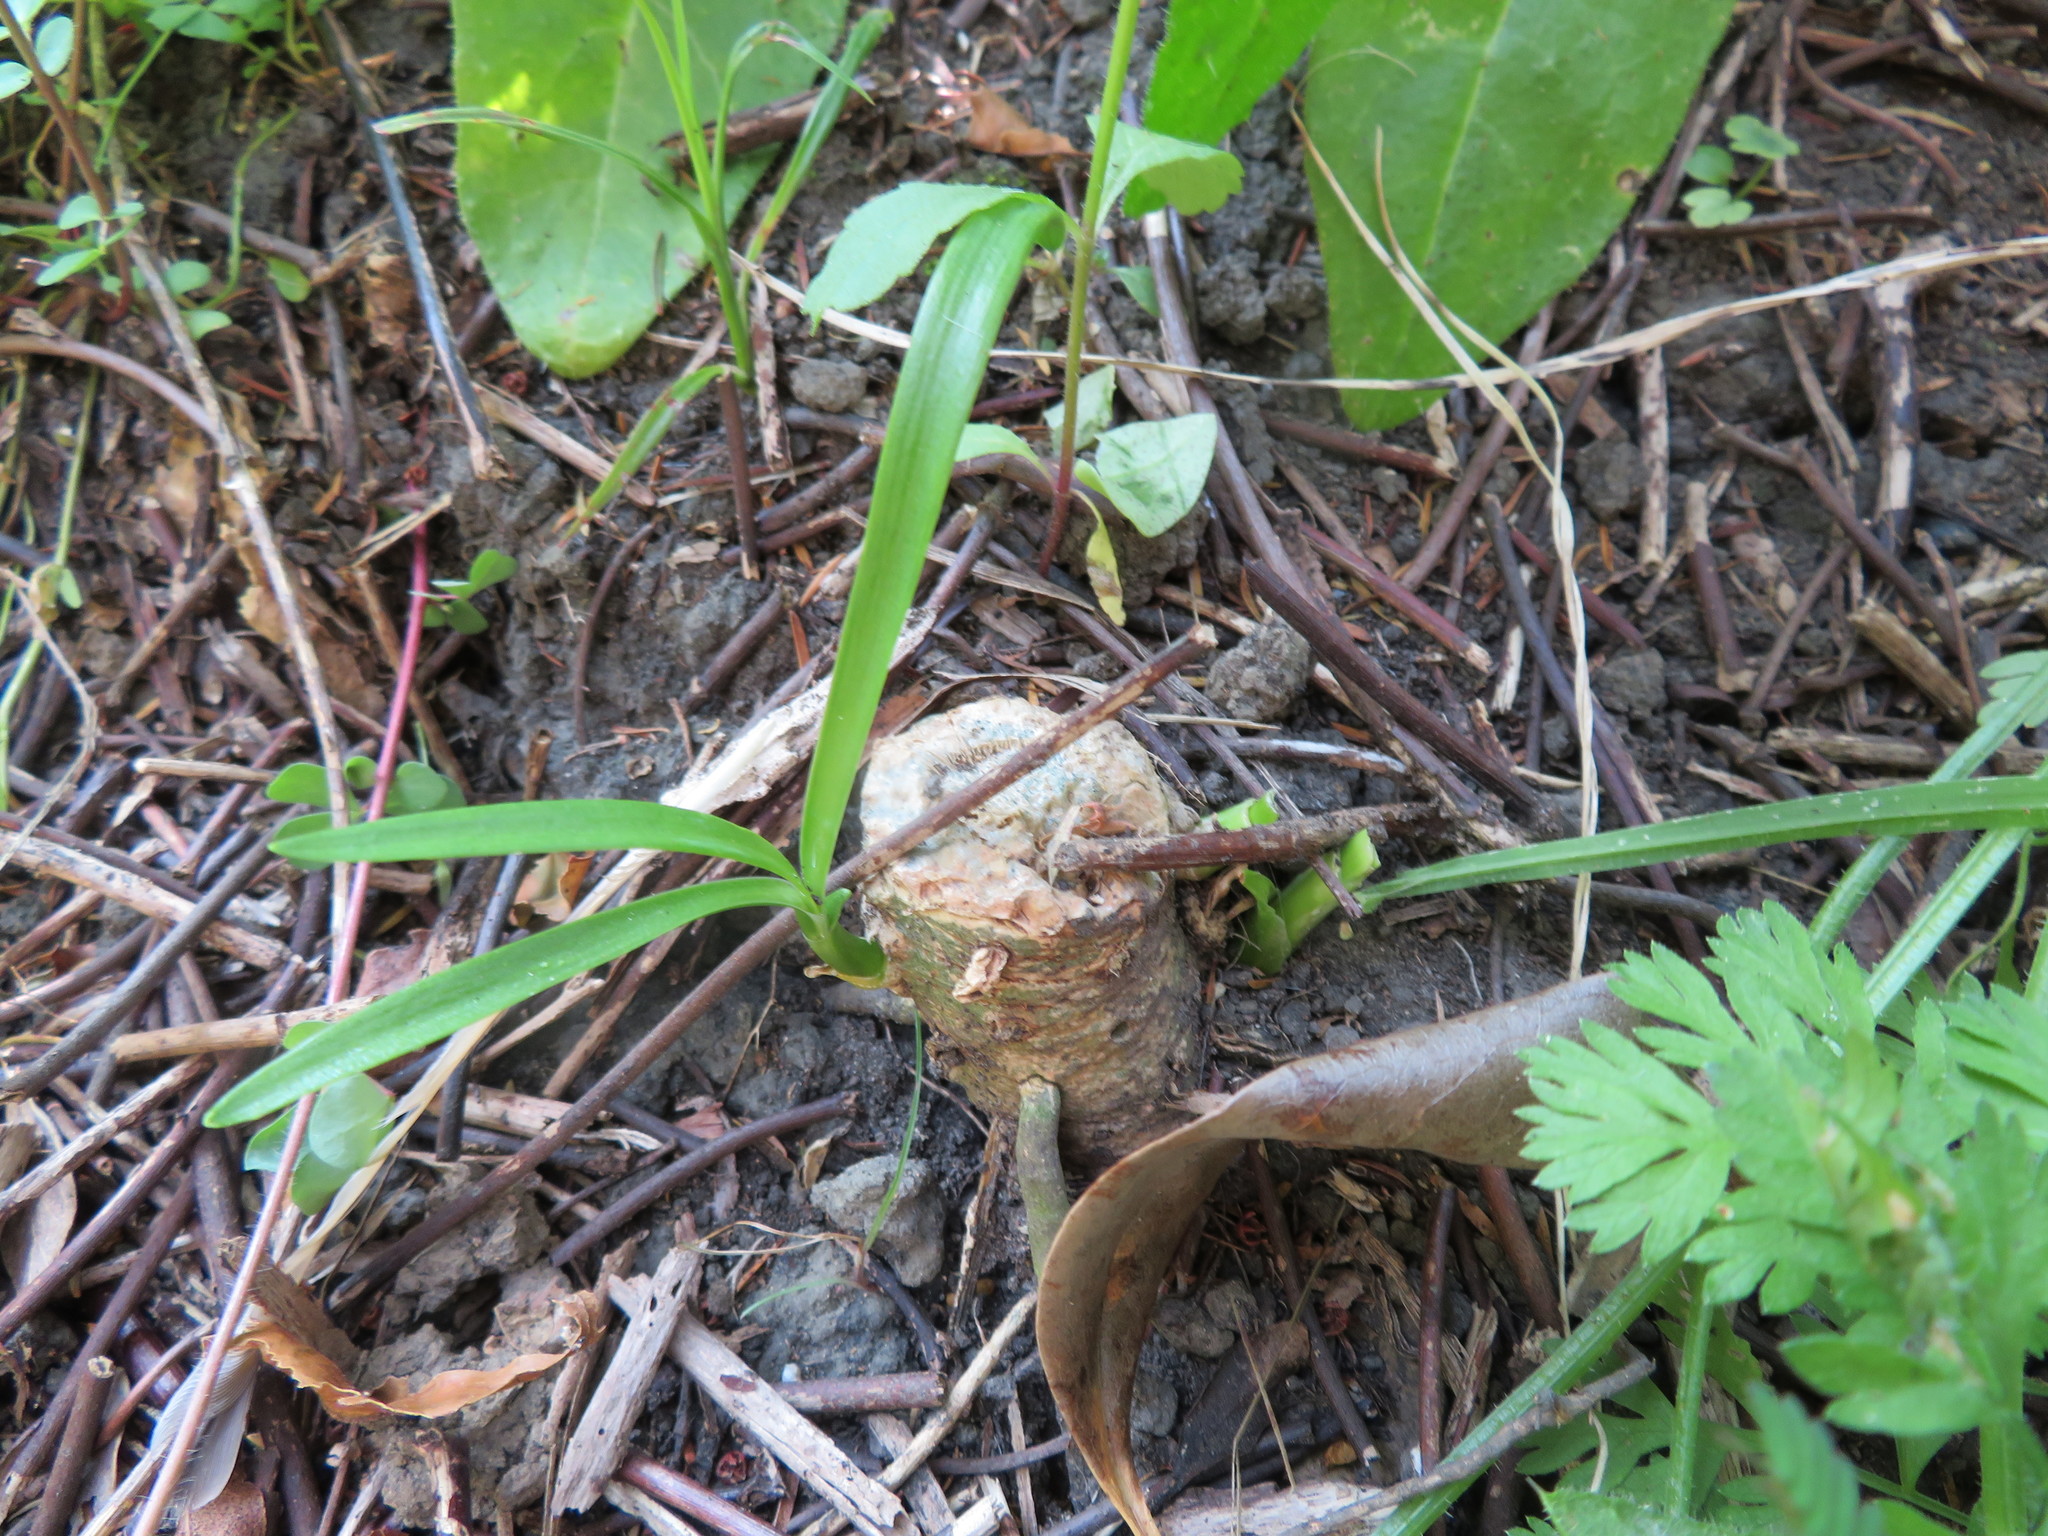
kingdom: Plantae
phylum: Tracheophyta
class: Liliopsida
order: Asparagales
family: Amaryllidaceae
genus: Agapanthus
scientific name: Agapanthus praecox
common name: African-lily
